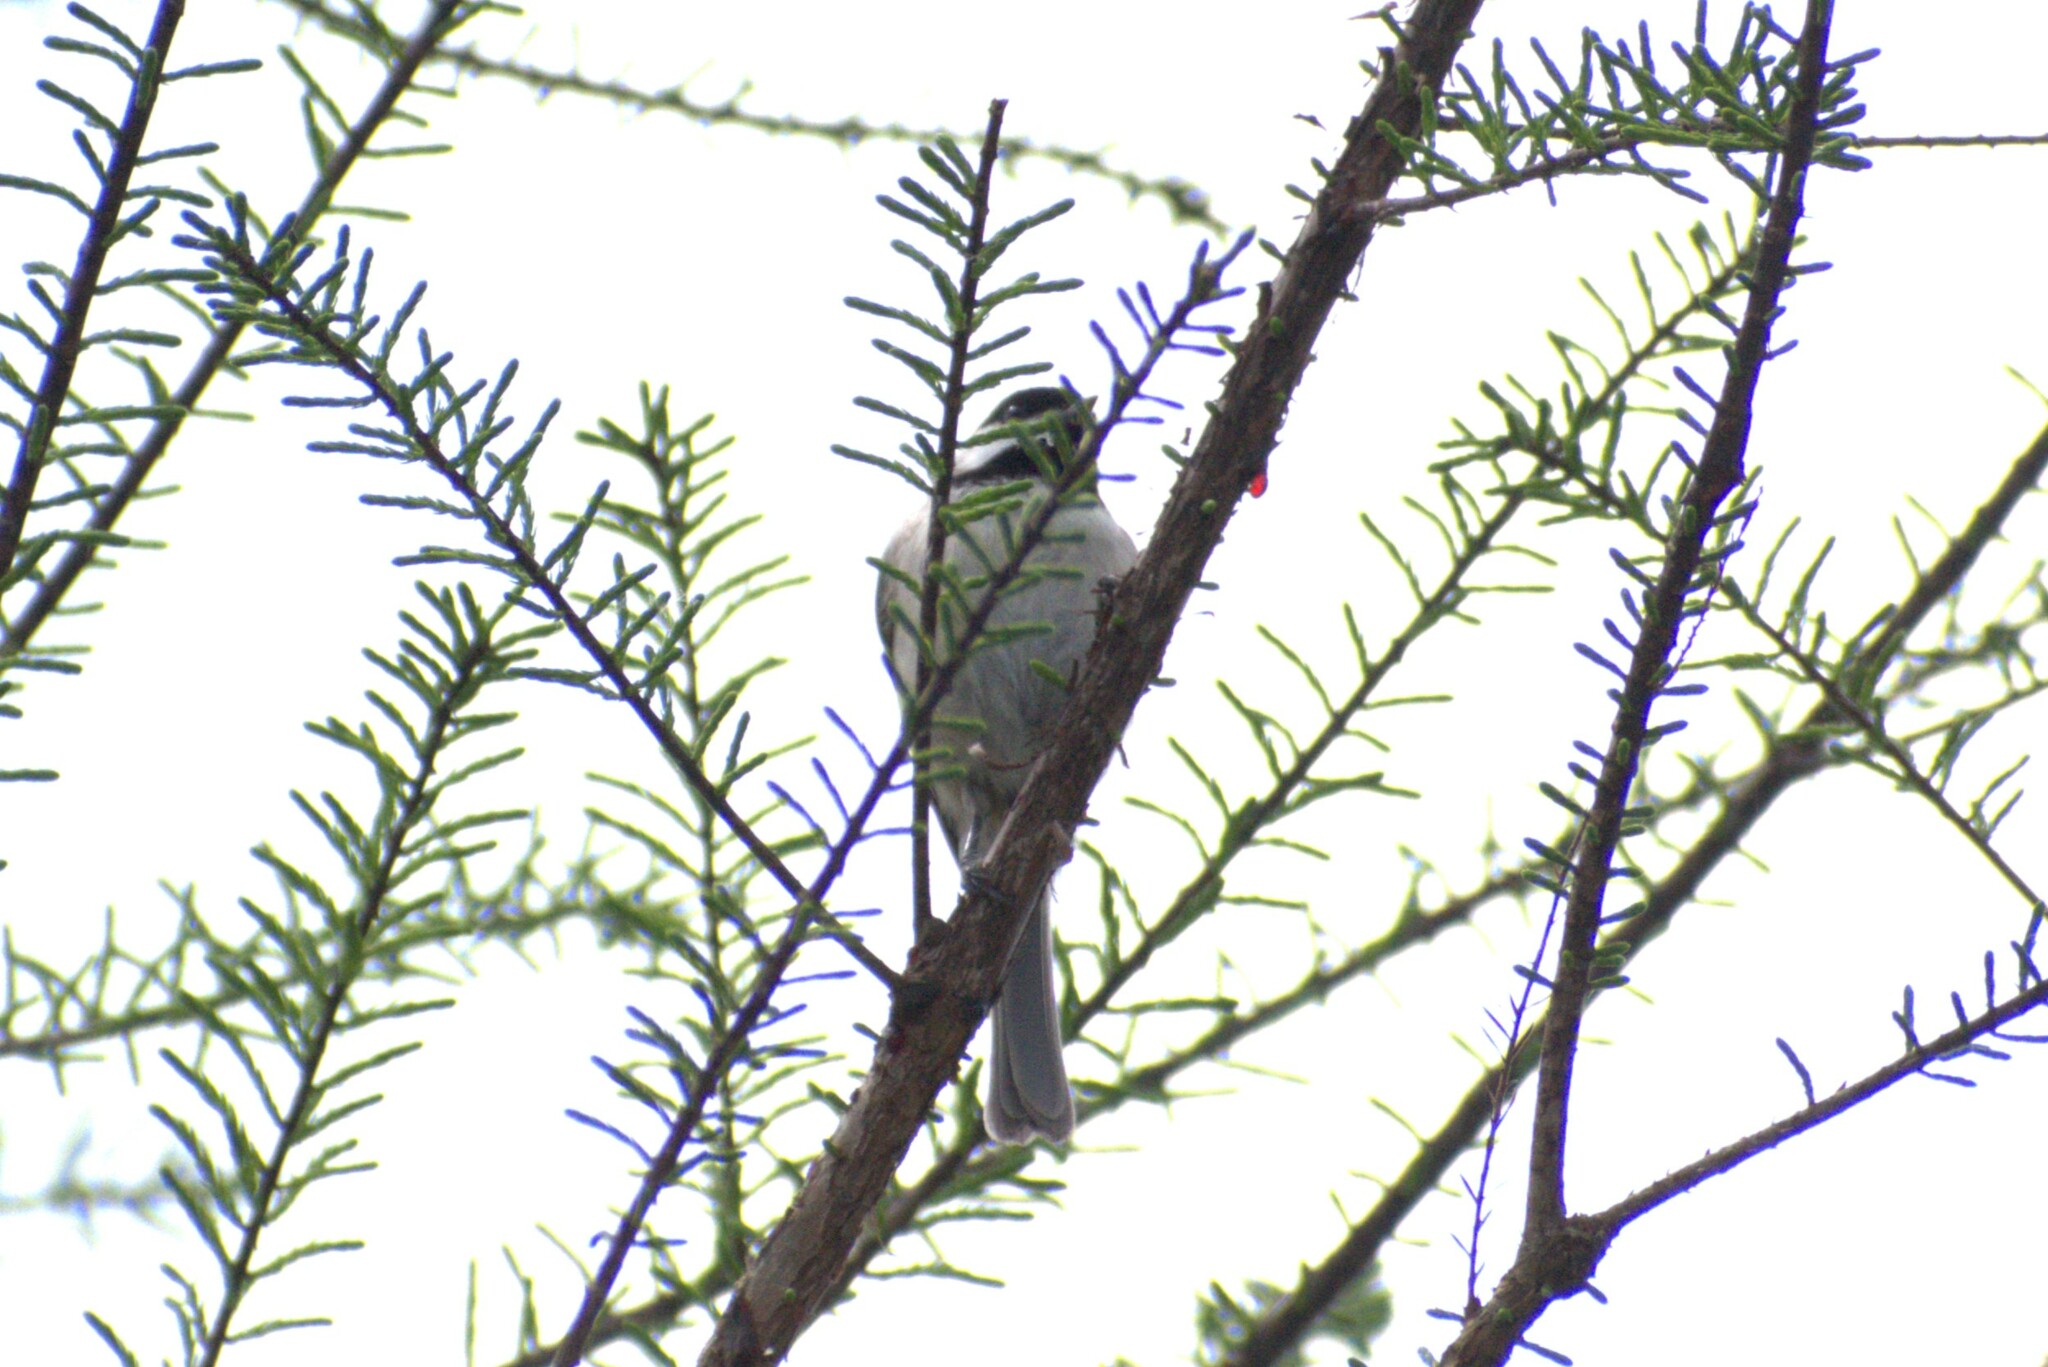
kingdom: Animalia
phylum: Chordata
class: Aves
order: Passeriformes
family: Paridae
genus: Poecile
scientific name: Poecile carolinensis
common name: Carolina chickadee
